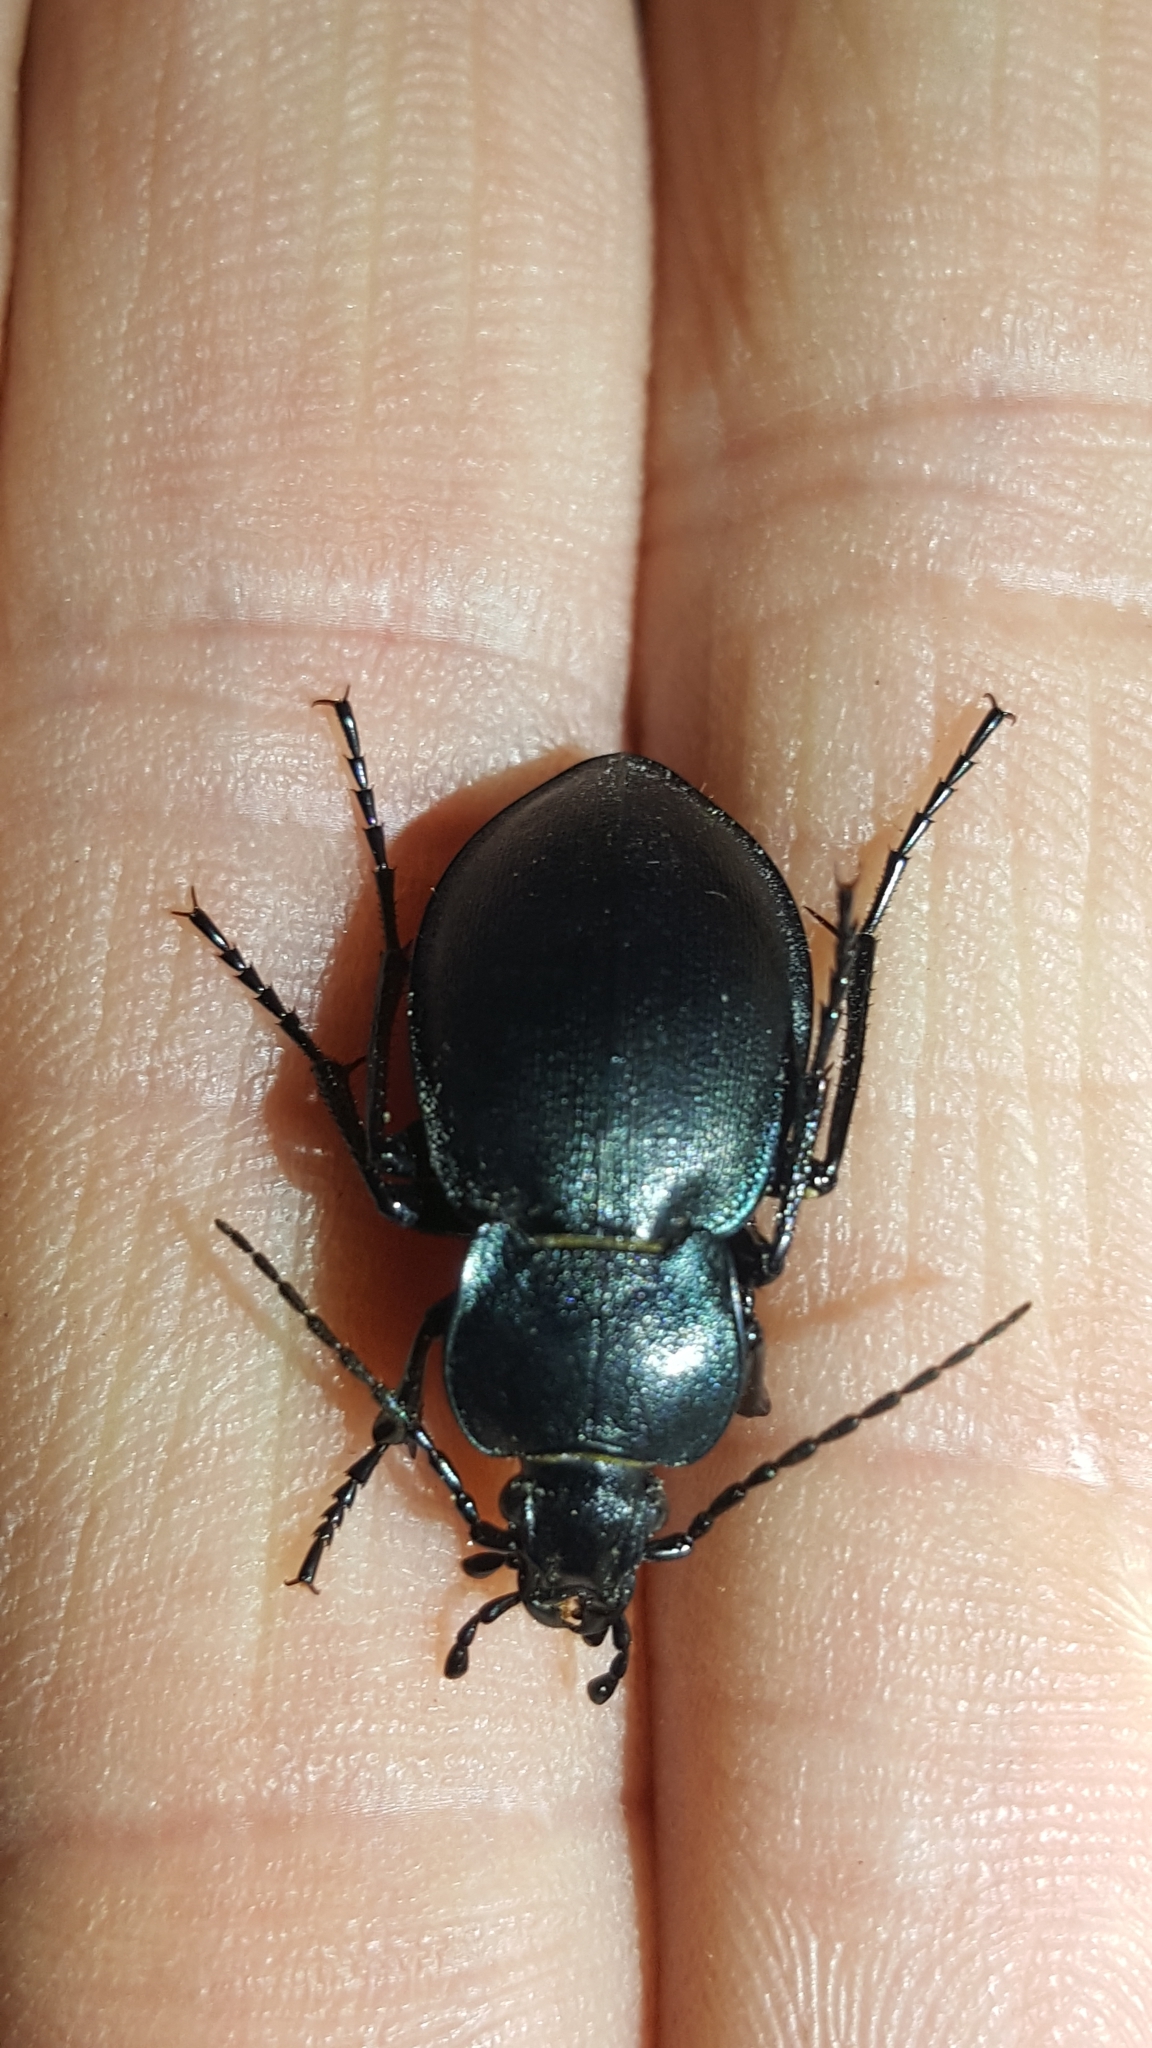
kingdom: Animalia
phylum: Arthropoda
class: Insecta
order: Coleoptera
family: Carabidae
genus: Carabus
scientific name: Carabus convexus
